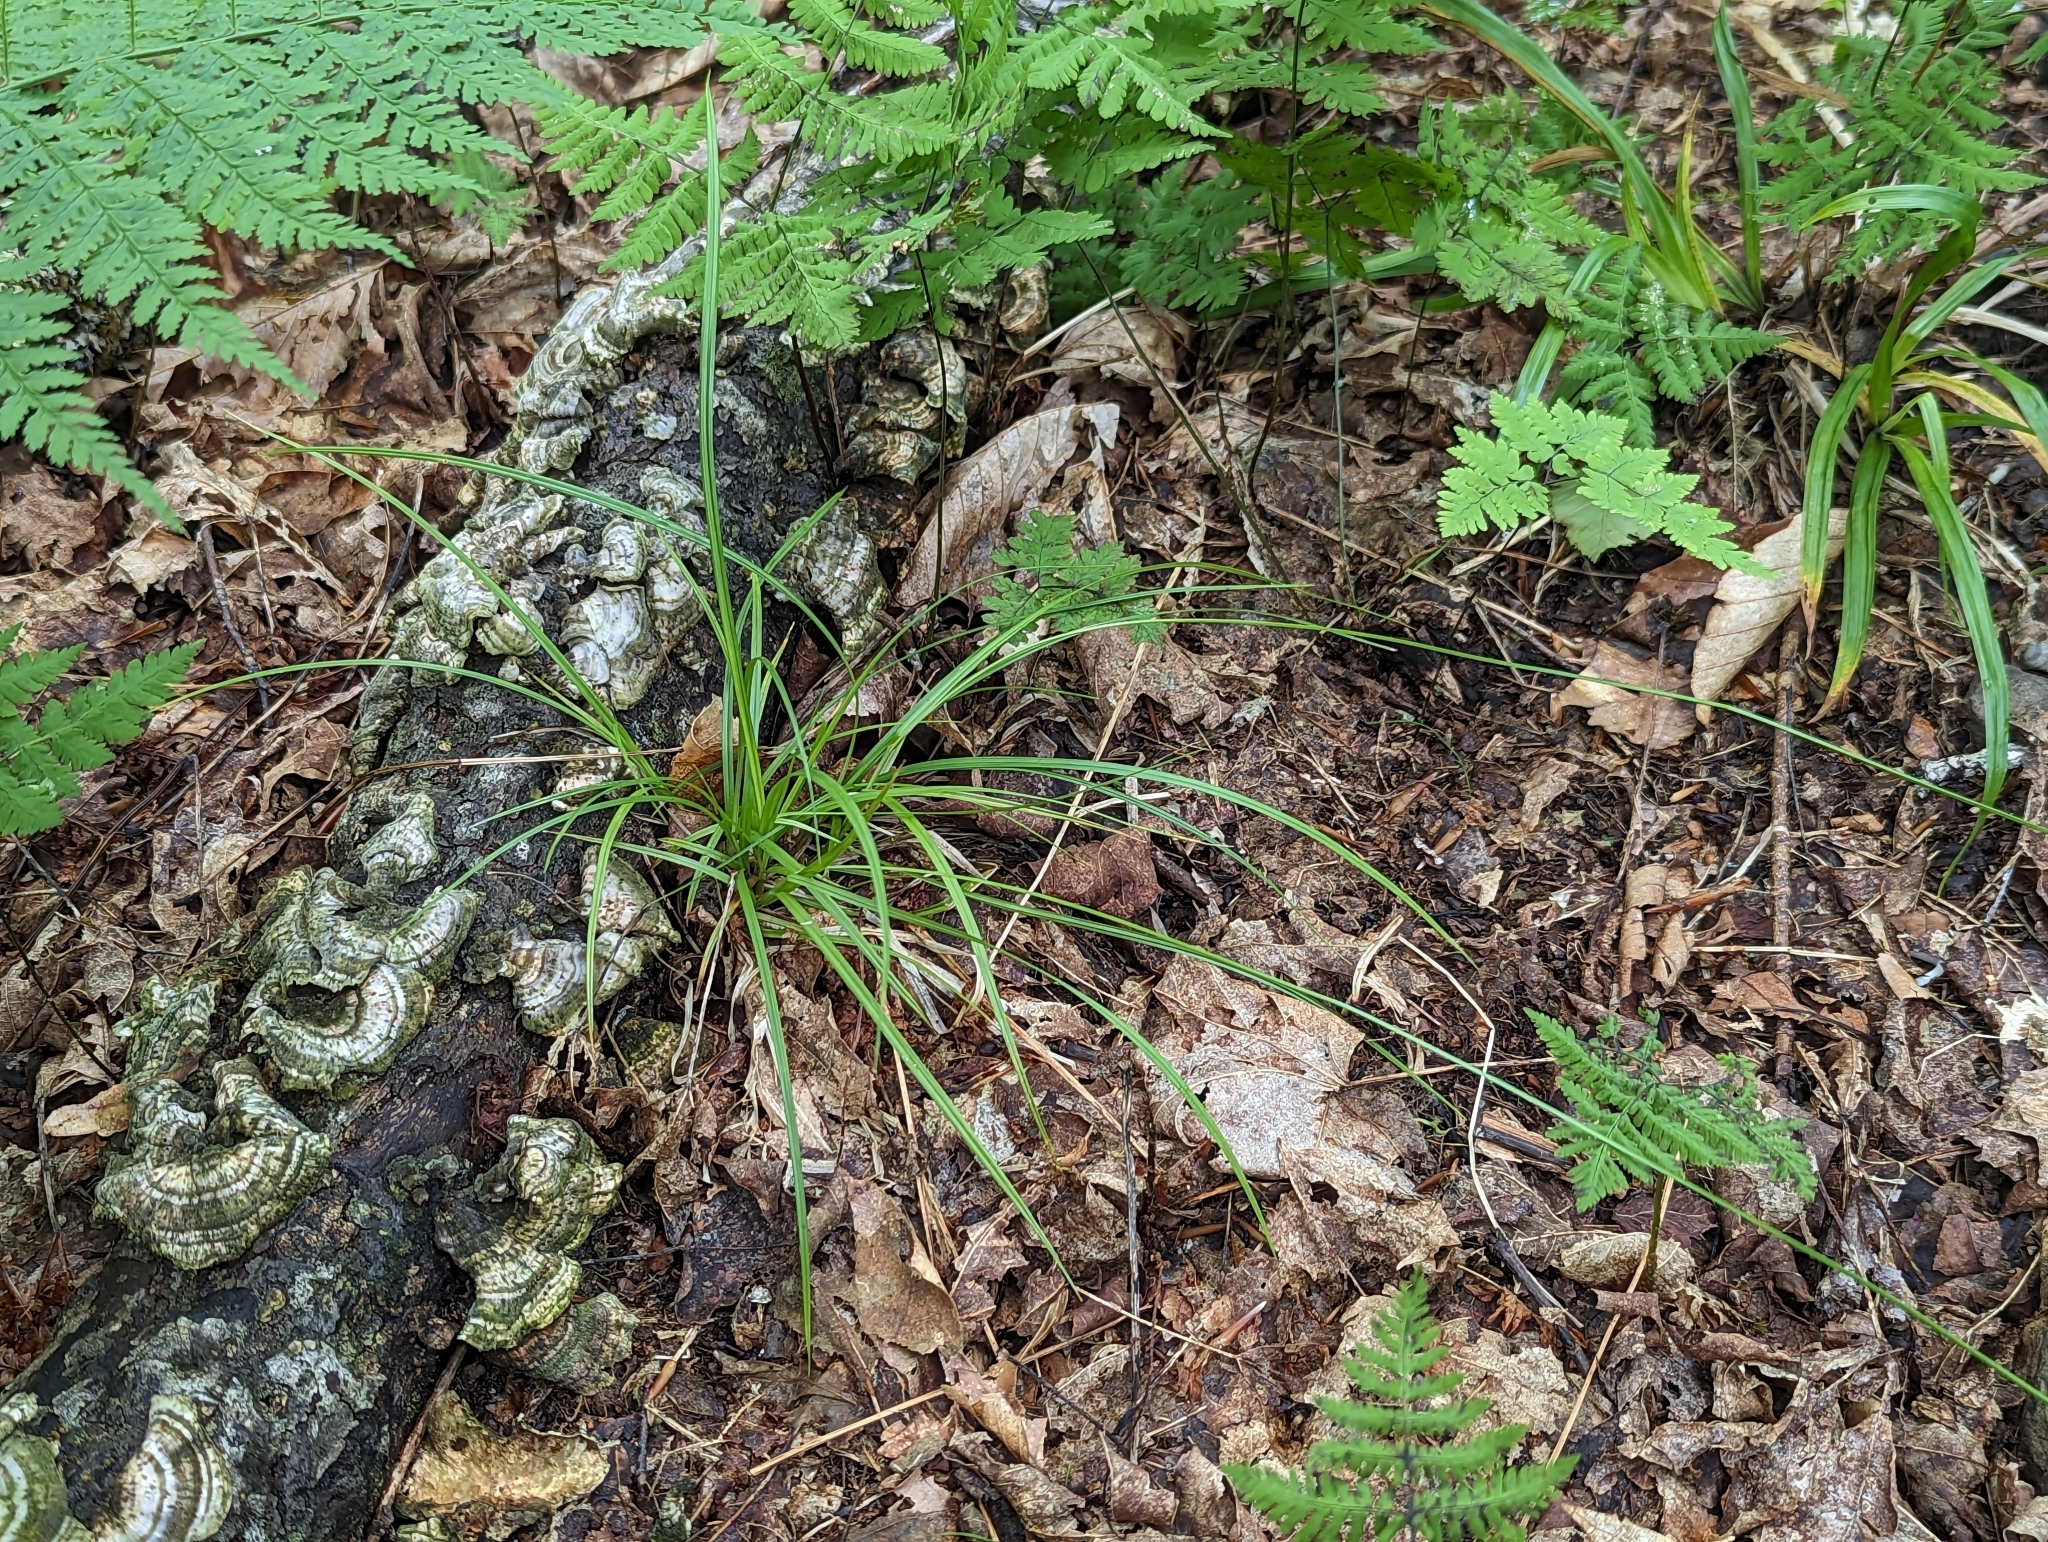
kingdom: Plantae
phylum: Tracheophyta
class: Liliopsida
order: Poales
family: Cyperaceae
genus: Carex
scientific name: Carex deweyana
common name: Dewey's sedge
